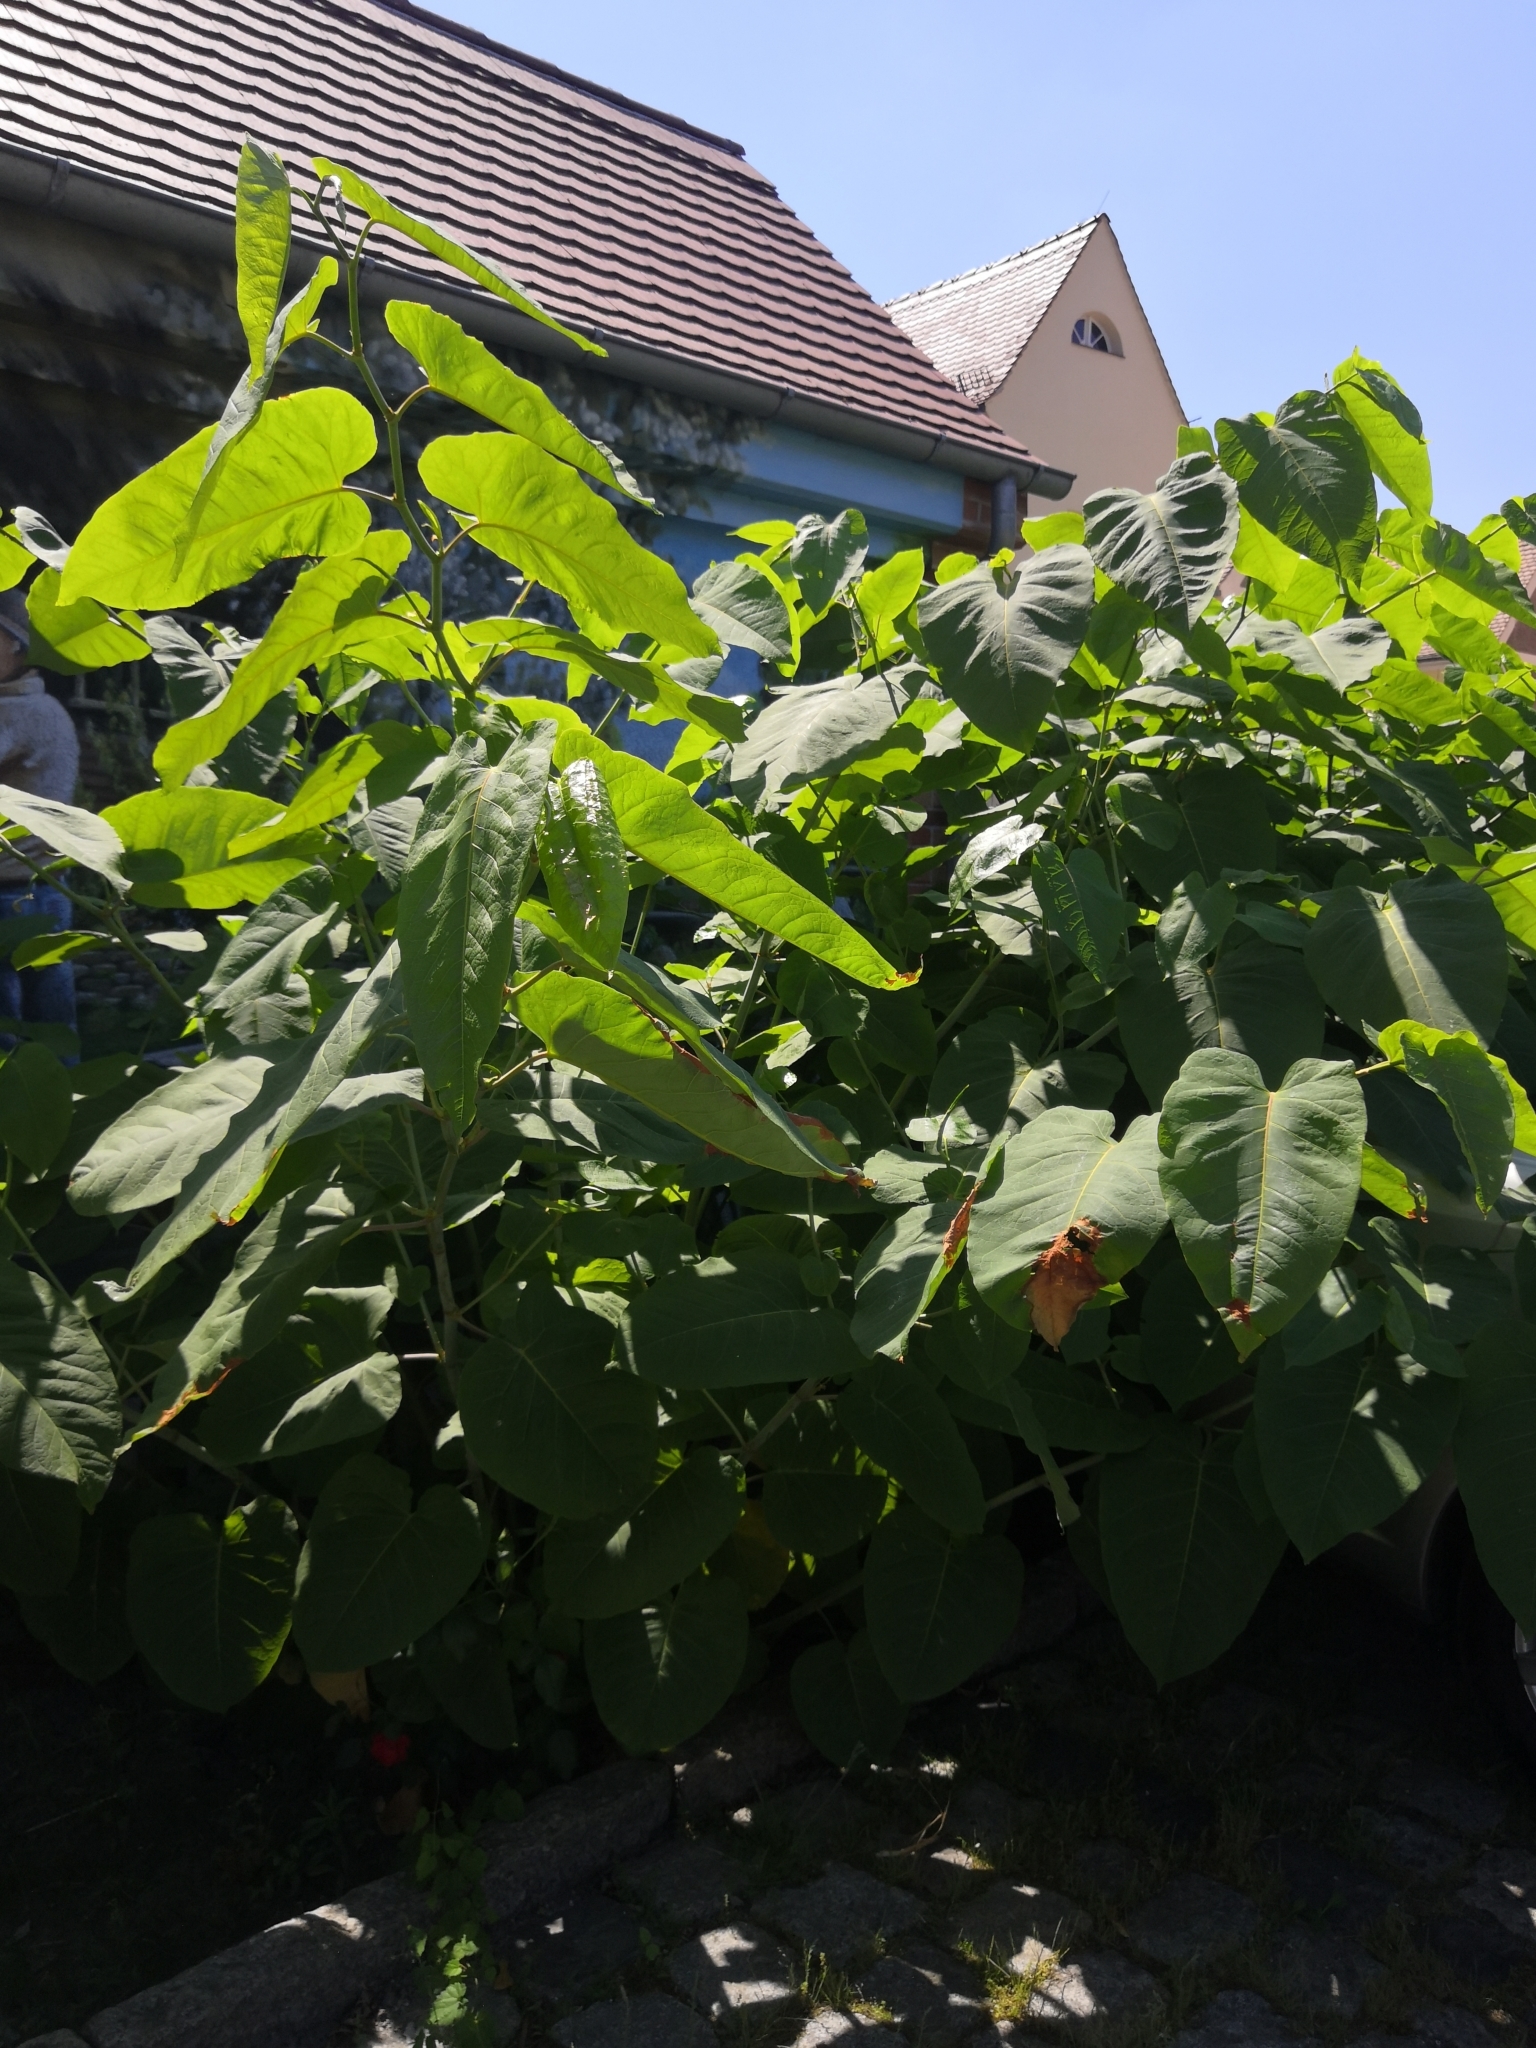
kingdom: Plantae
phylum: Tracheophyta
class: Magnoliopsida
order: Caryophyllales
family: Polygonaceae
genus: Reynoutria
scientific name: Reynoutria sachalinensis
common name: Giant knotweed
